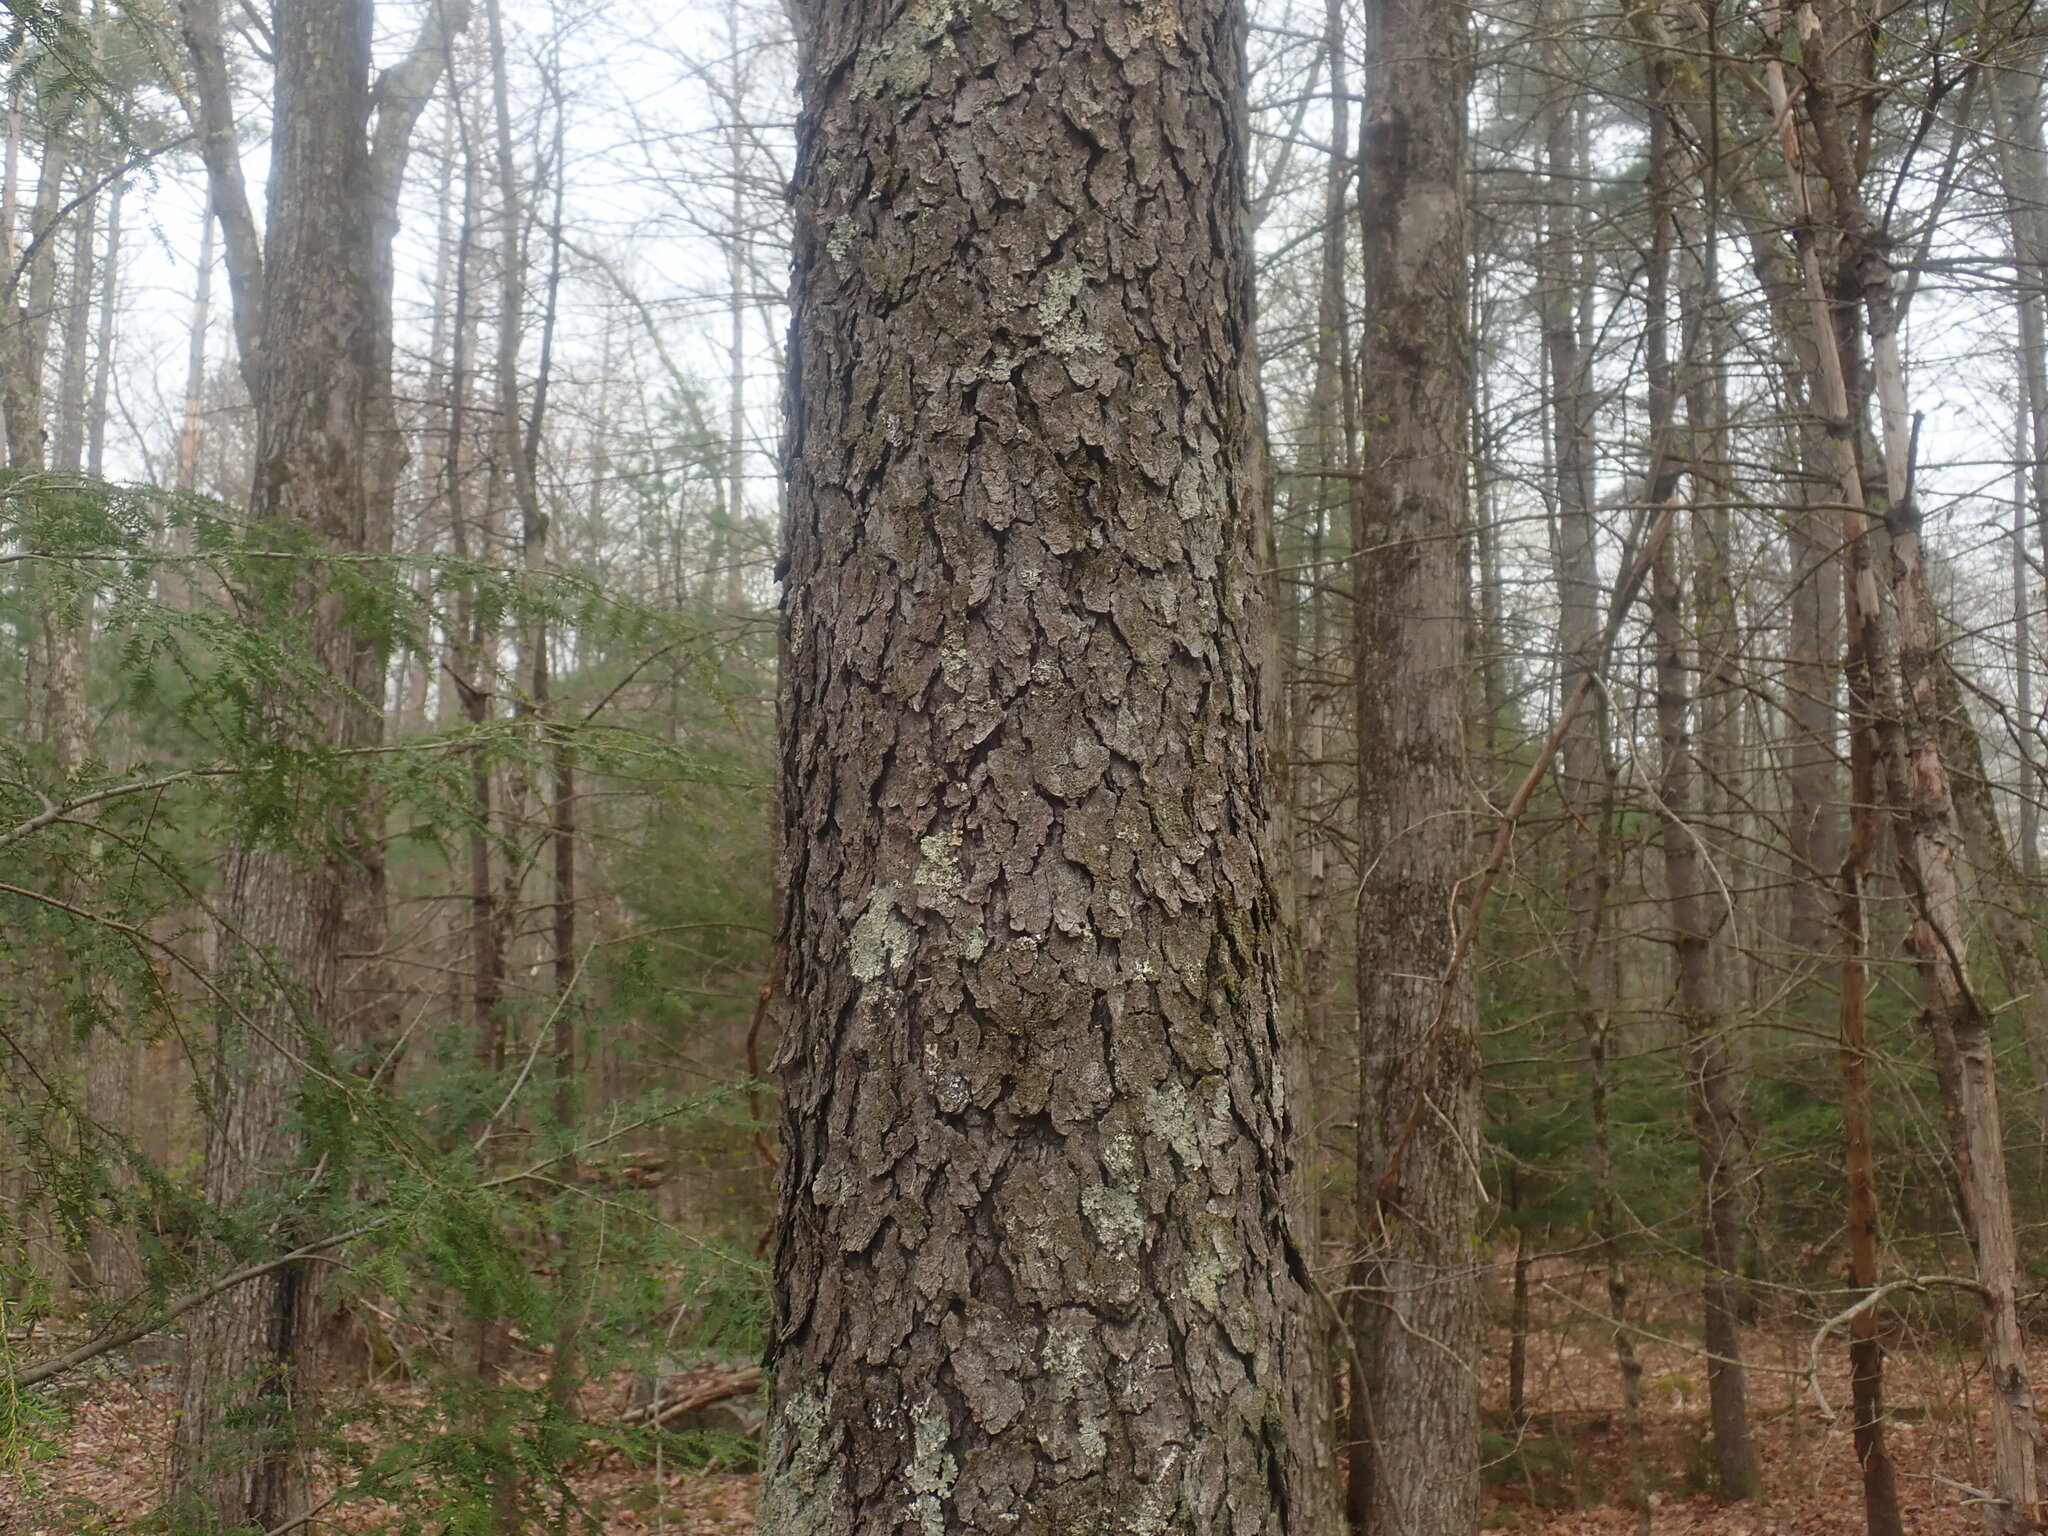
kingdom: Plantae
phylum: Tracheophyta
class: Magnoliopsida
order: Rosales
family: Rosaceae
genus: Prunus
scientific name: Prunus serotina
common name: Black cherry
